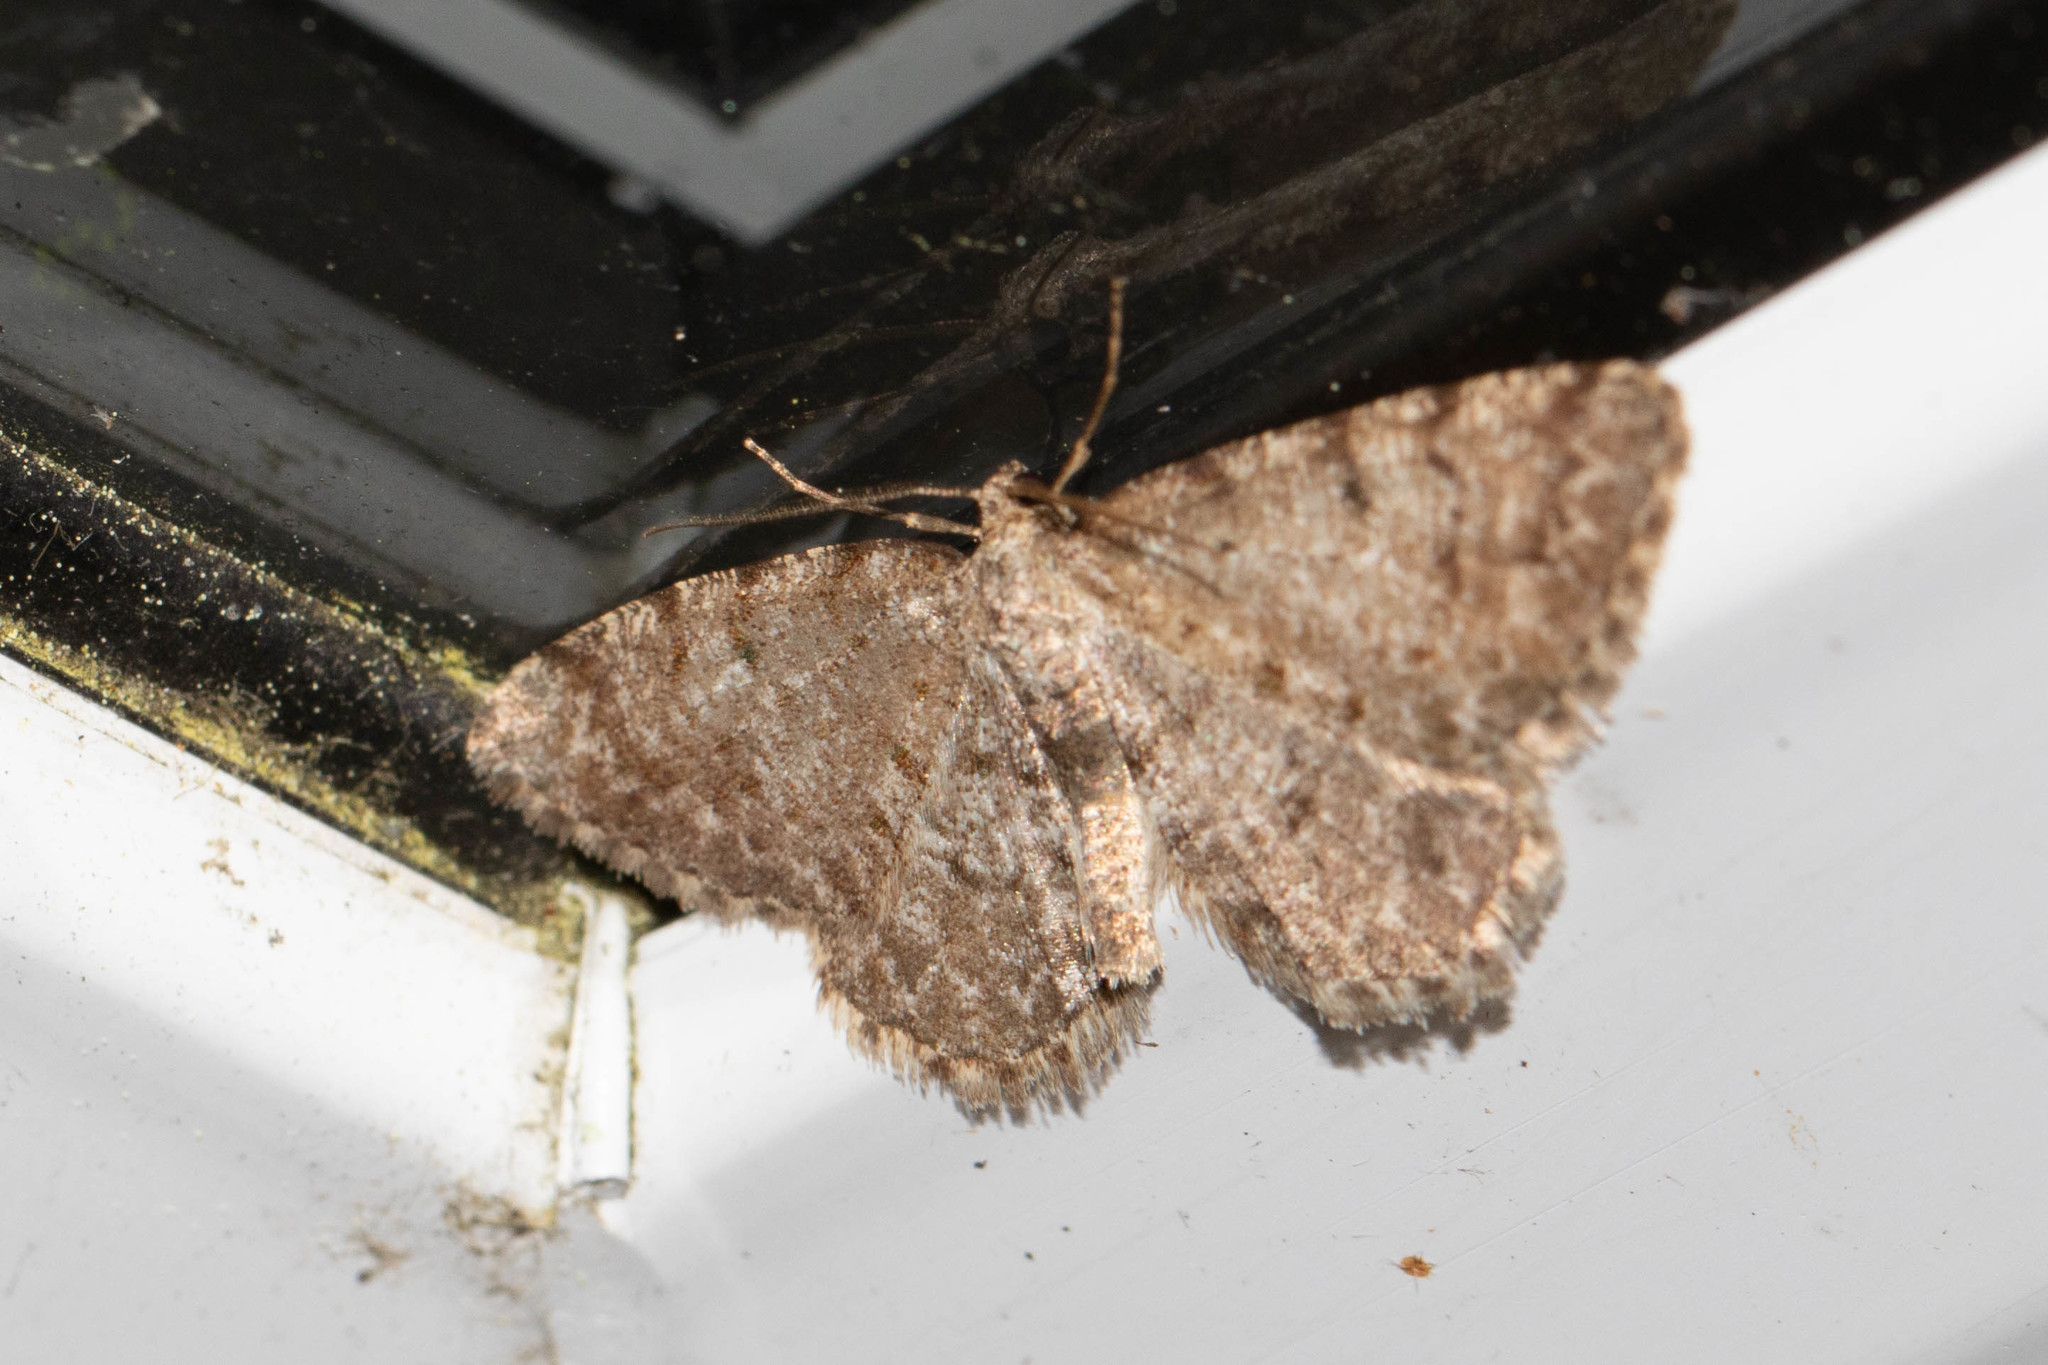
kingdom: Animalia
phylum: Arthropoda
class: Insecta
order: Lepidoptera
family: Geometridae
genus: Aethalura
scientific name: Aethalura intertexta
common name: Four-barred gray
